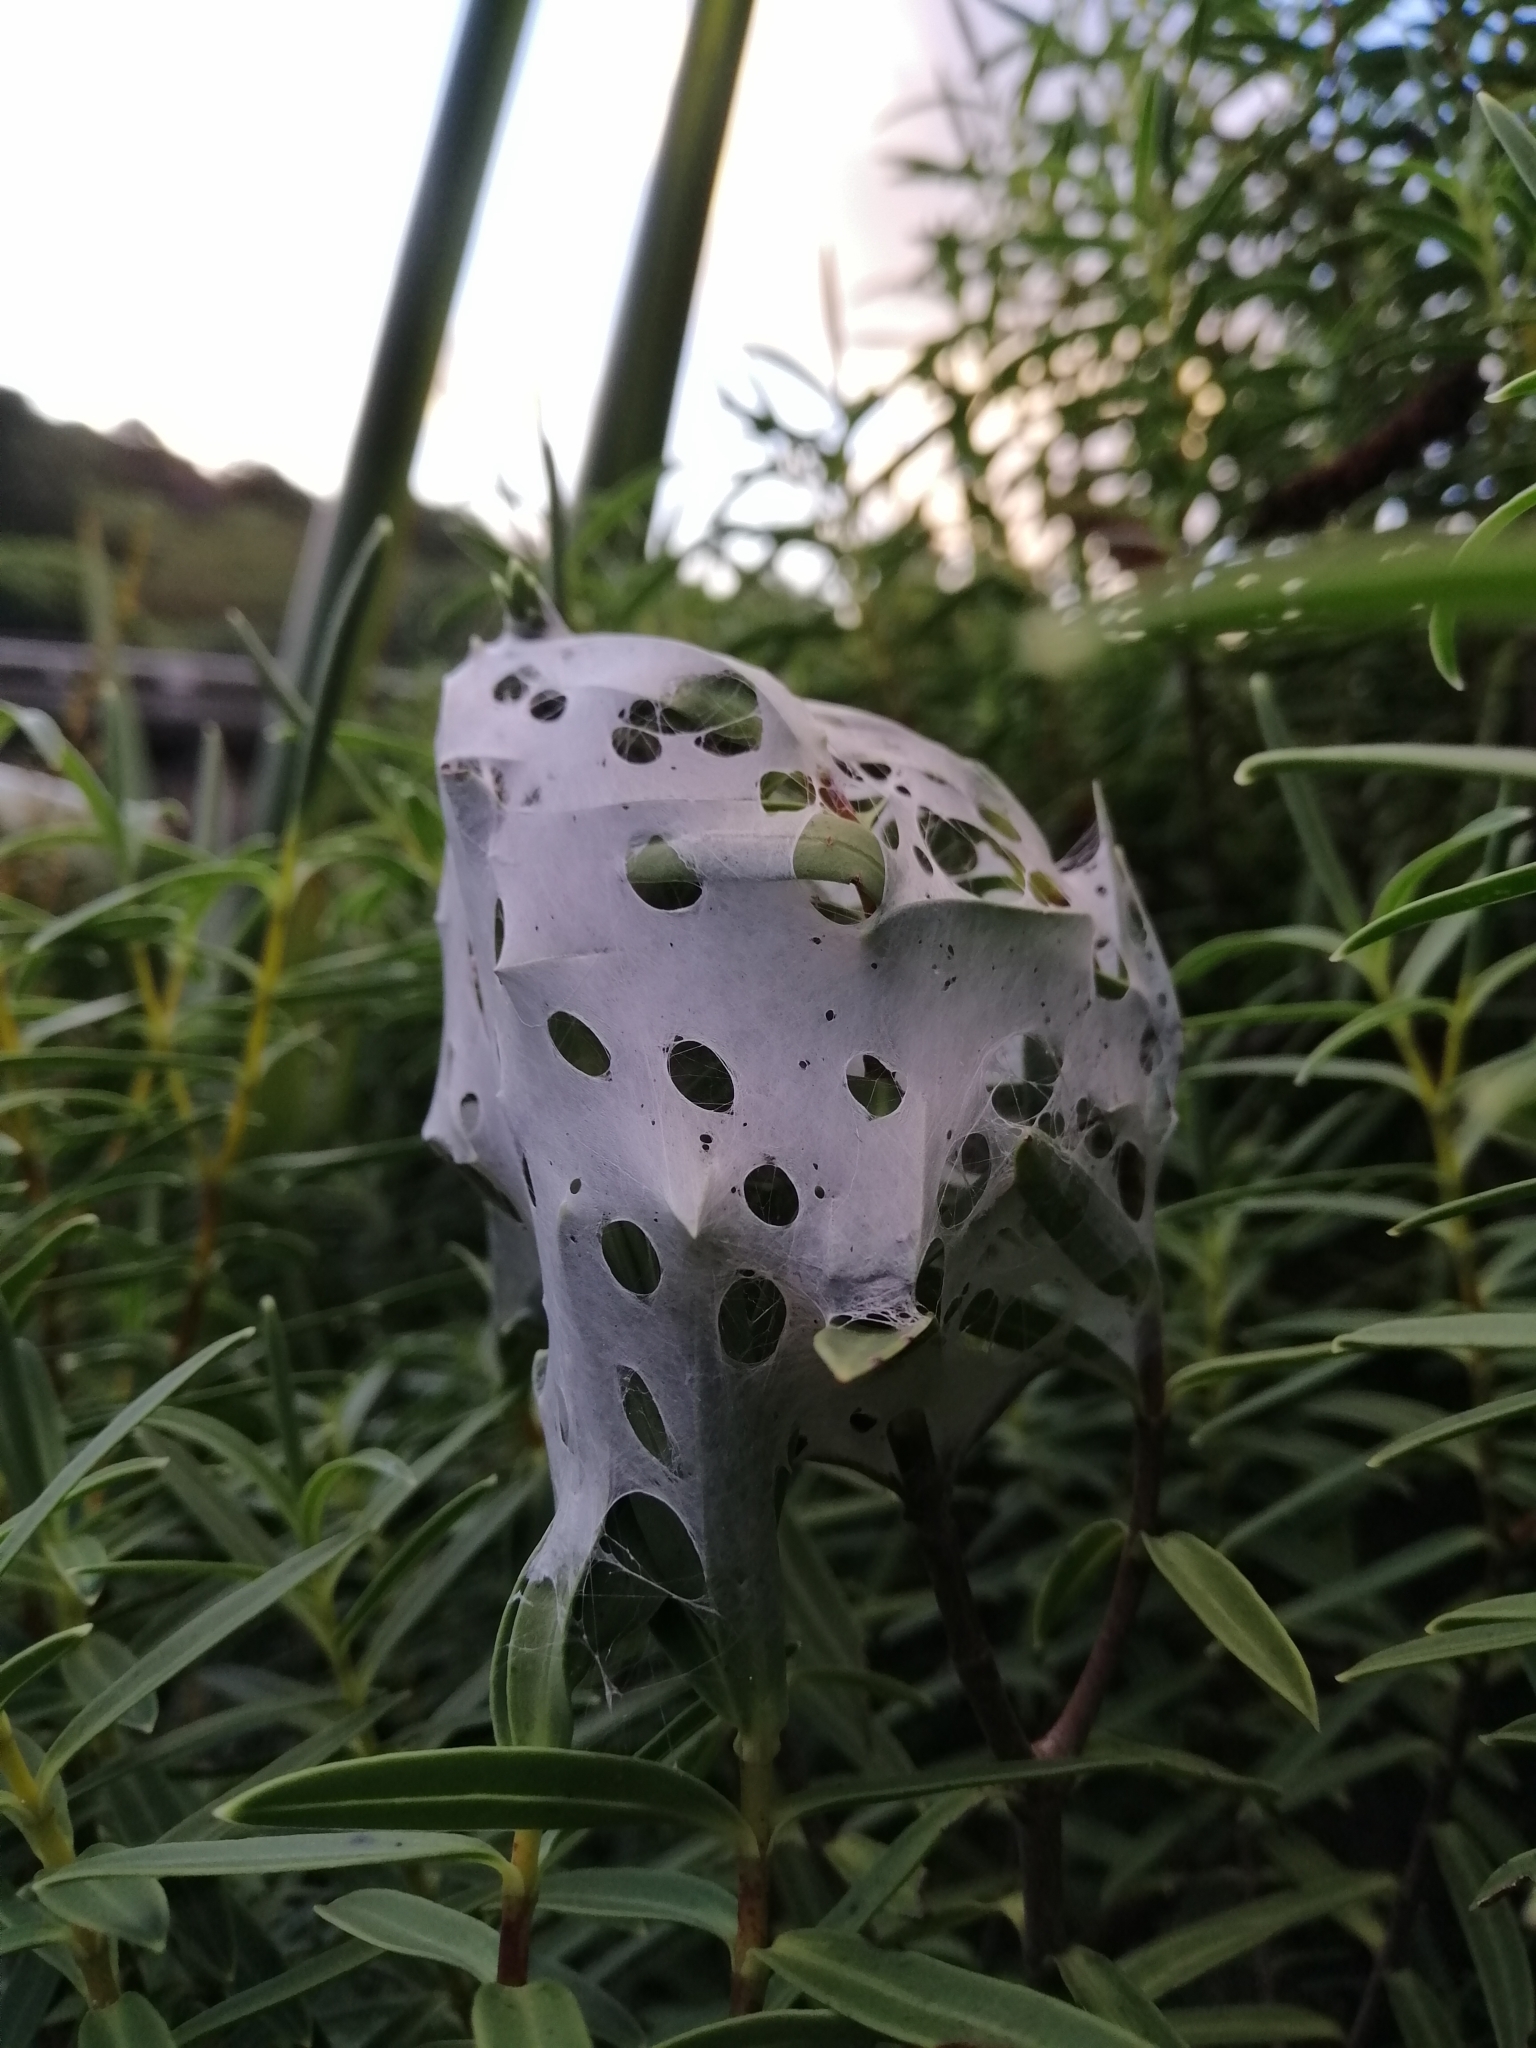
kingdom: Animalia
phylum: Arthropoda
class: Arachnida
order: Araneae
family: Pisauridae
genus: Dolomedes
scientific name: Dolomedes minor
